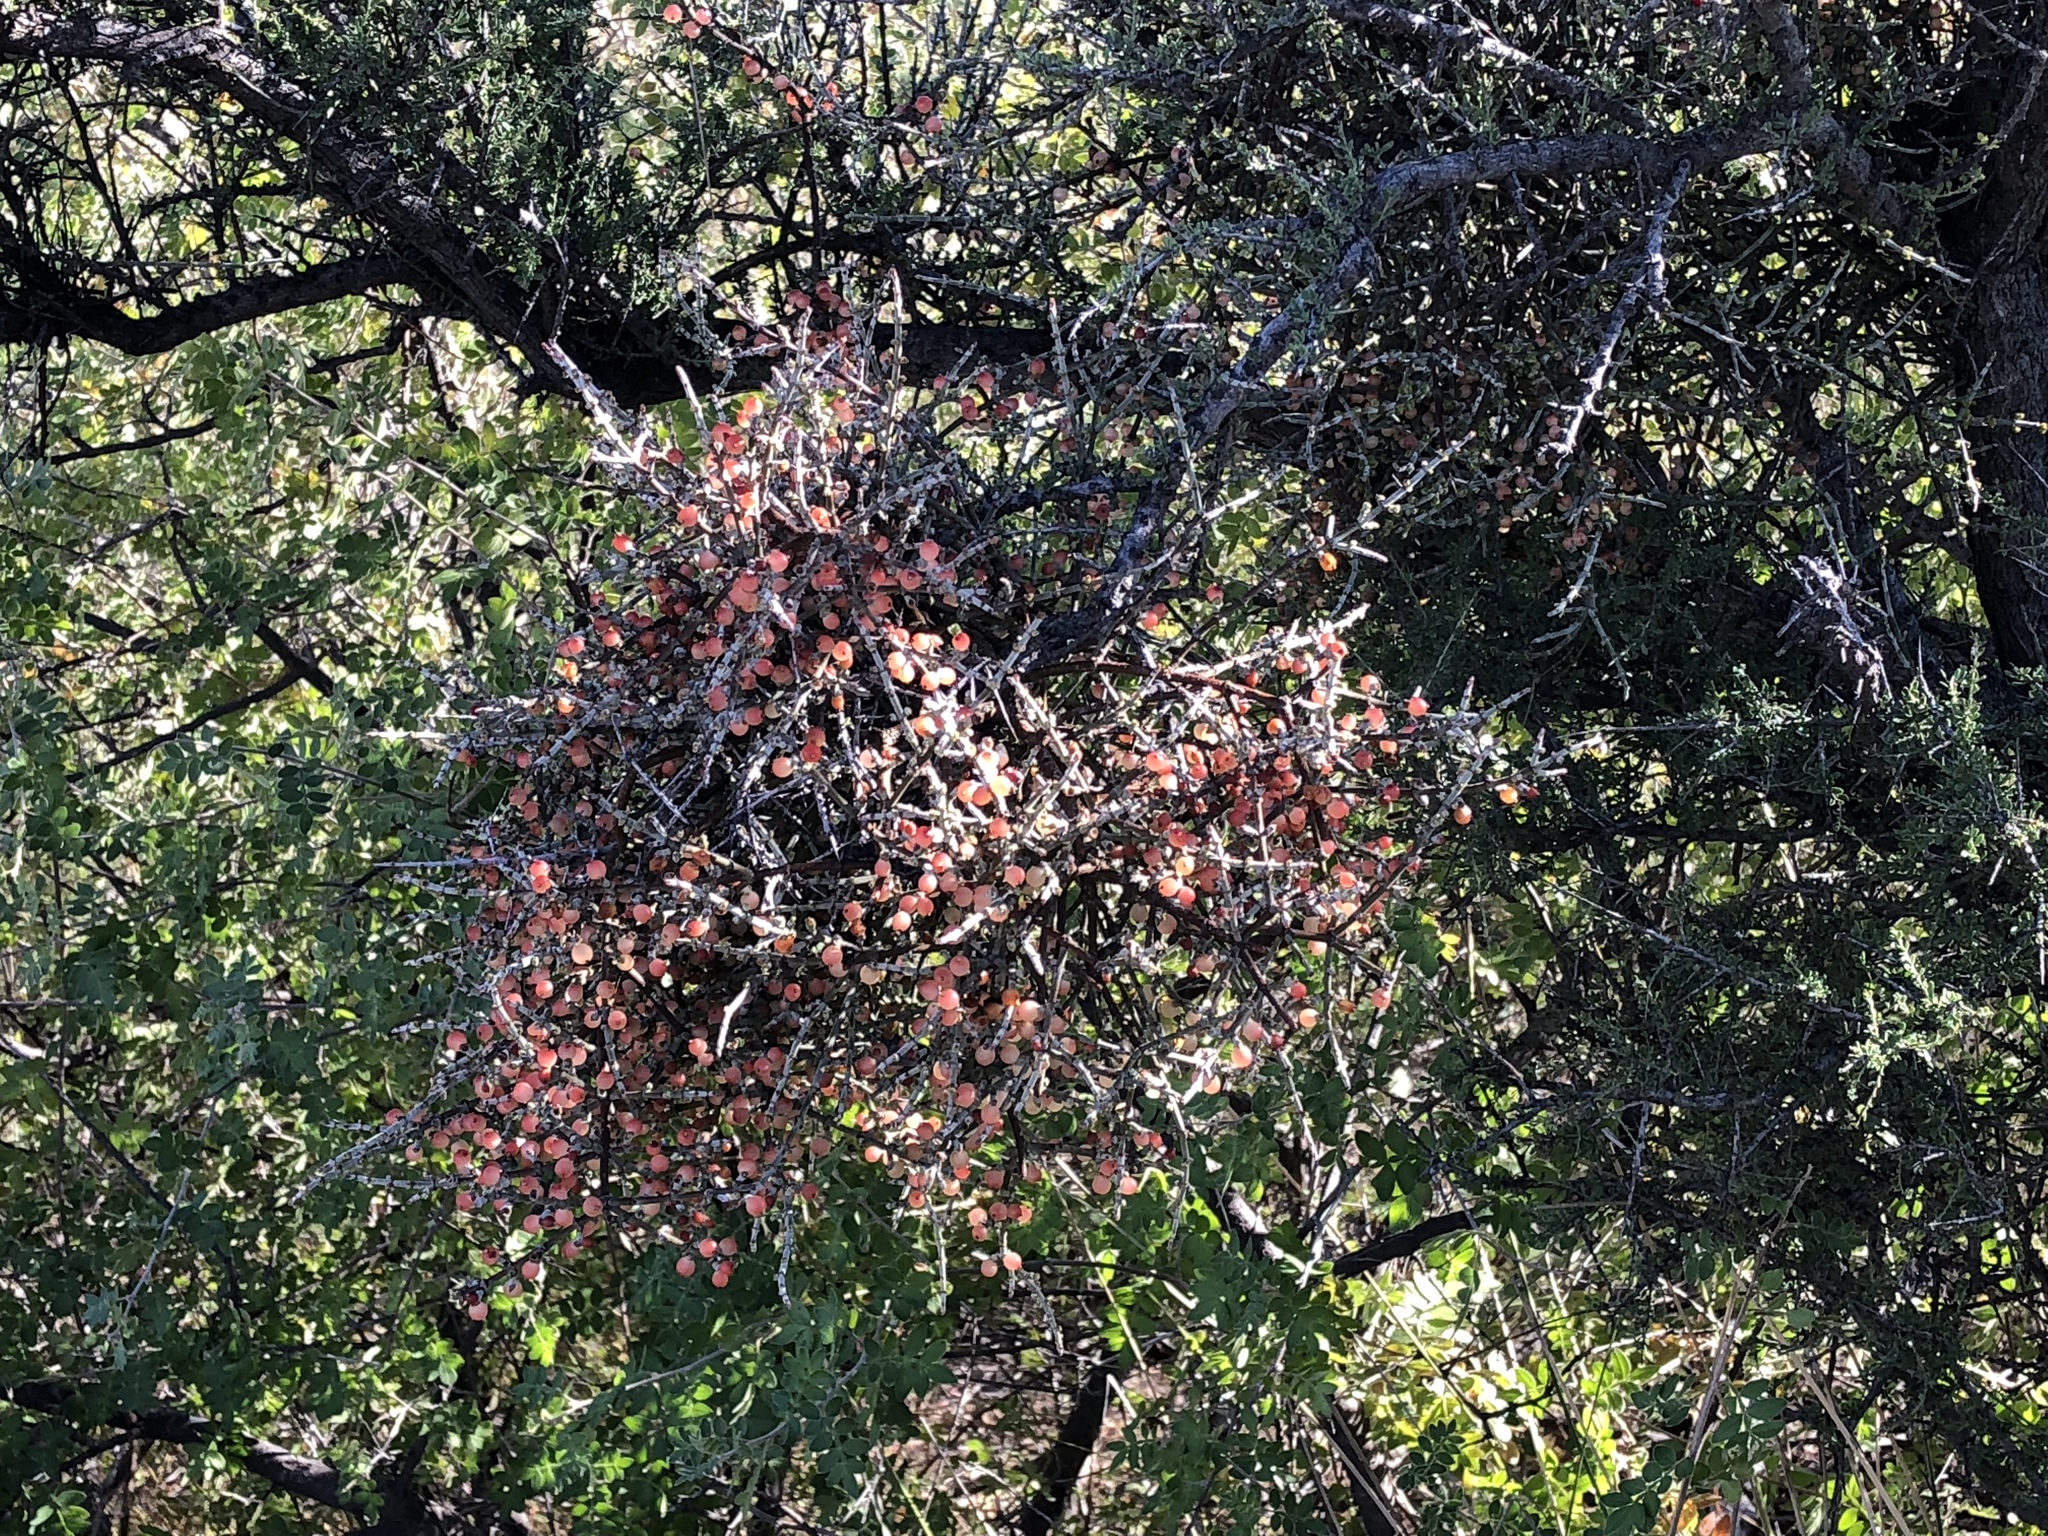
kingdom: Plantae
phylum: Tracheophyta
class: Magnoliopsida
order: Santalales
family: Viscaceae
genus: Phoradendron
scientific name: Phoradendron californicum
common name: Acacia mistletoe
